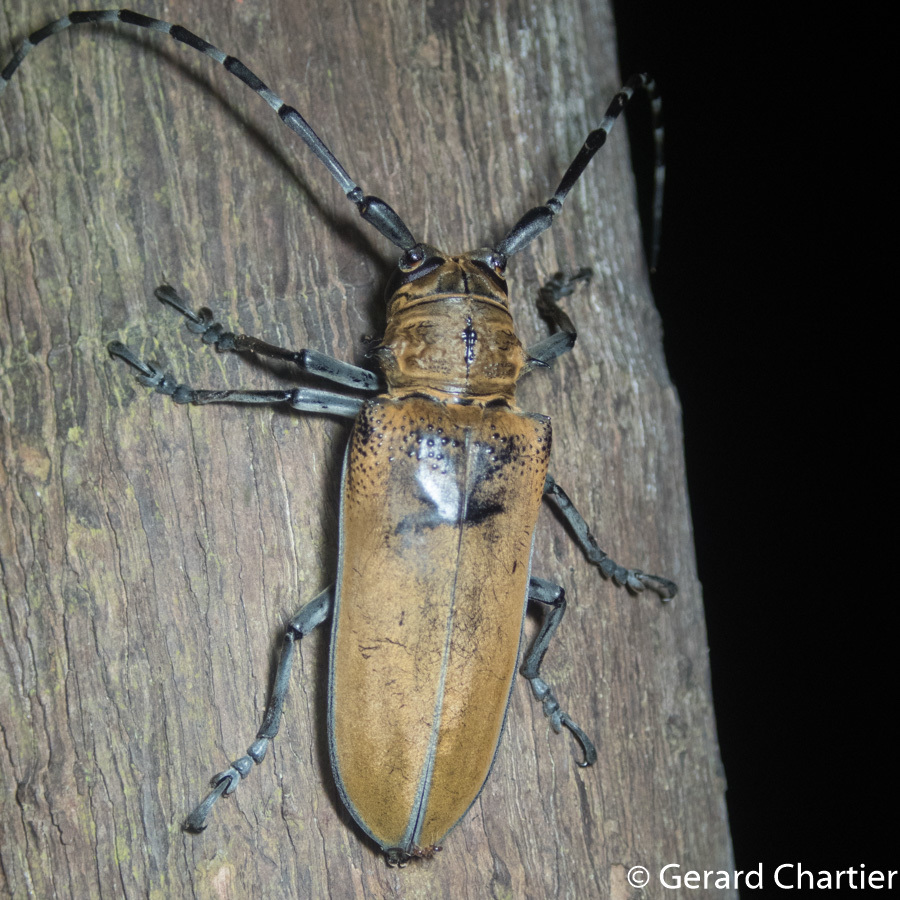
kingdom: Animalia
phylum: Arthropoda
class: Insecta
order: Coleoptera
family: Cerambycidae
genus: Apriona
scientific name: Apriona germarii
